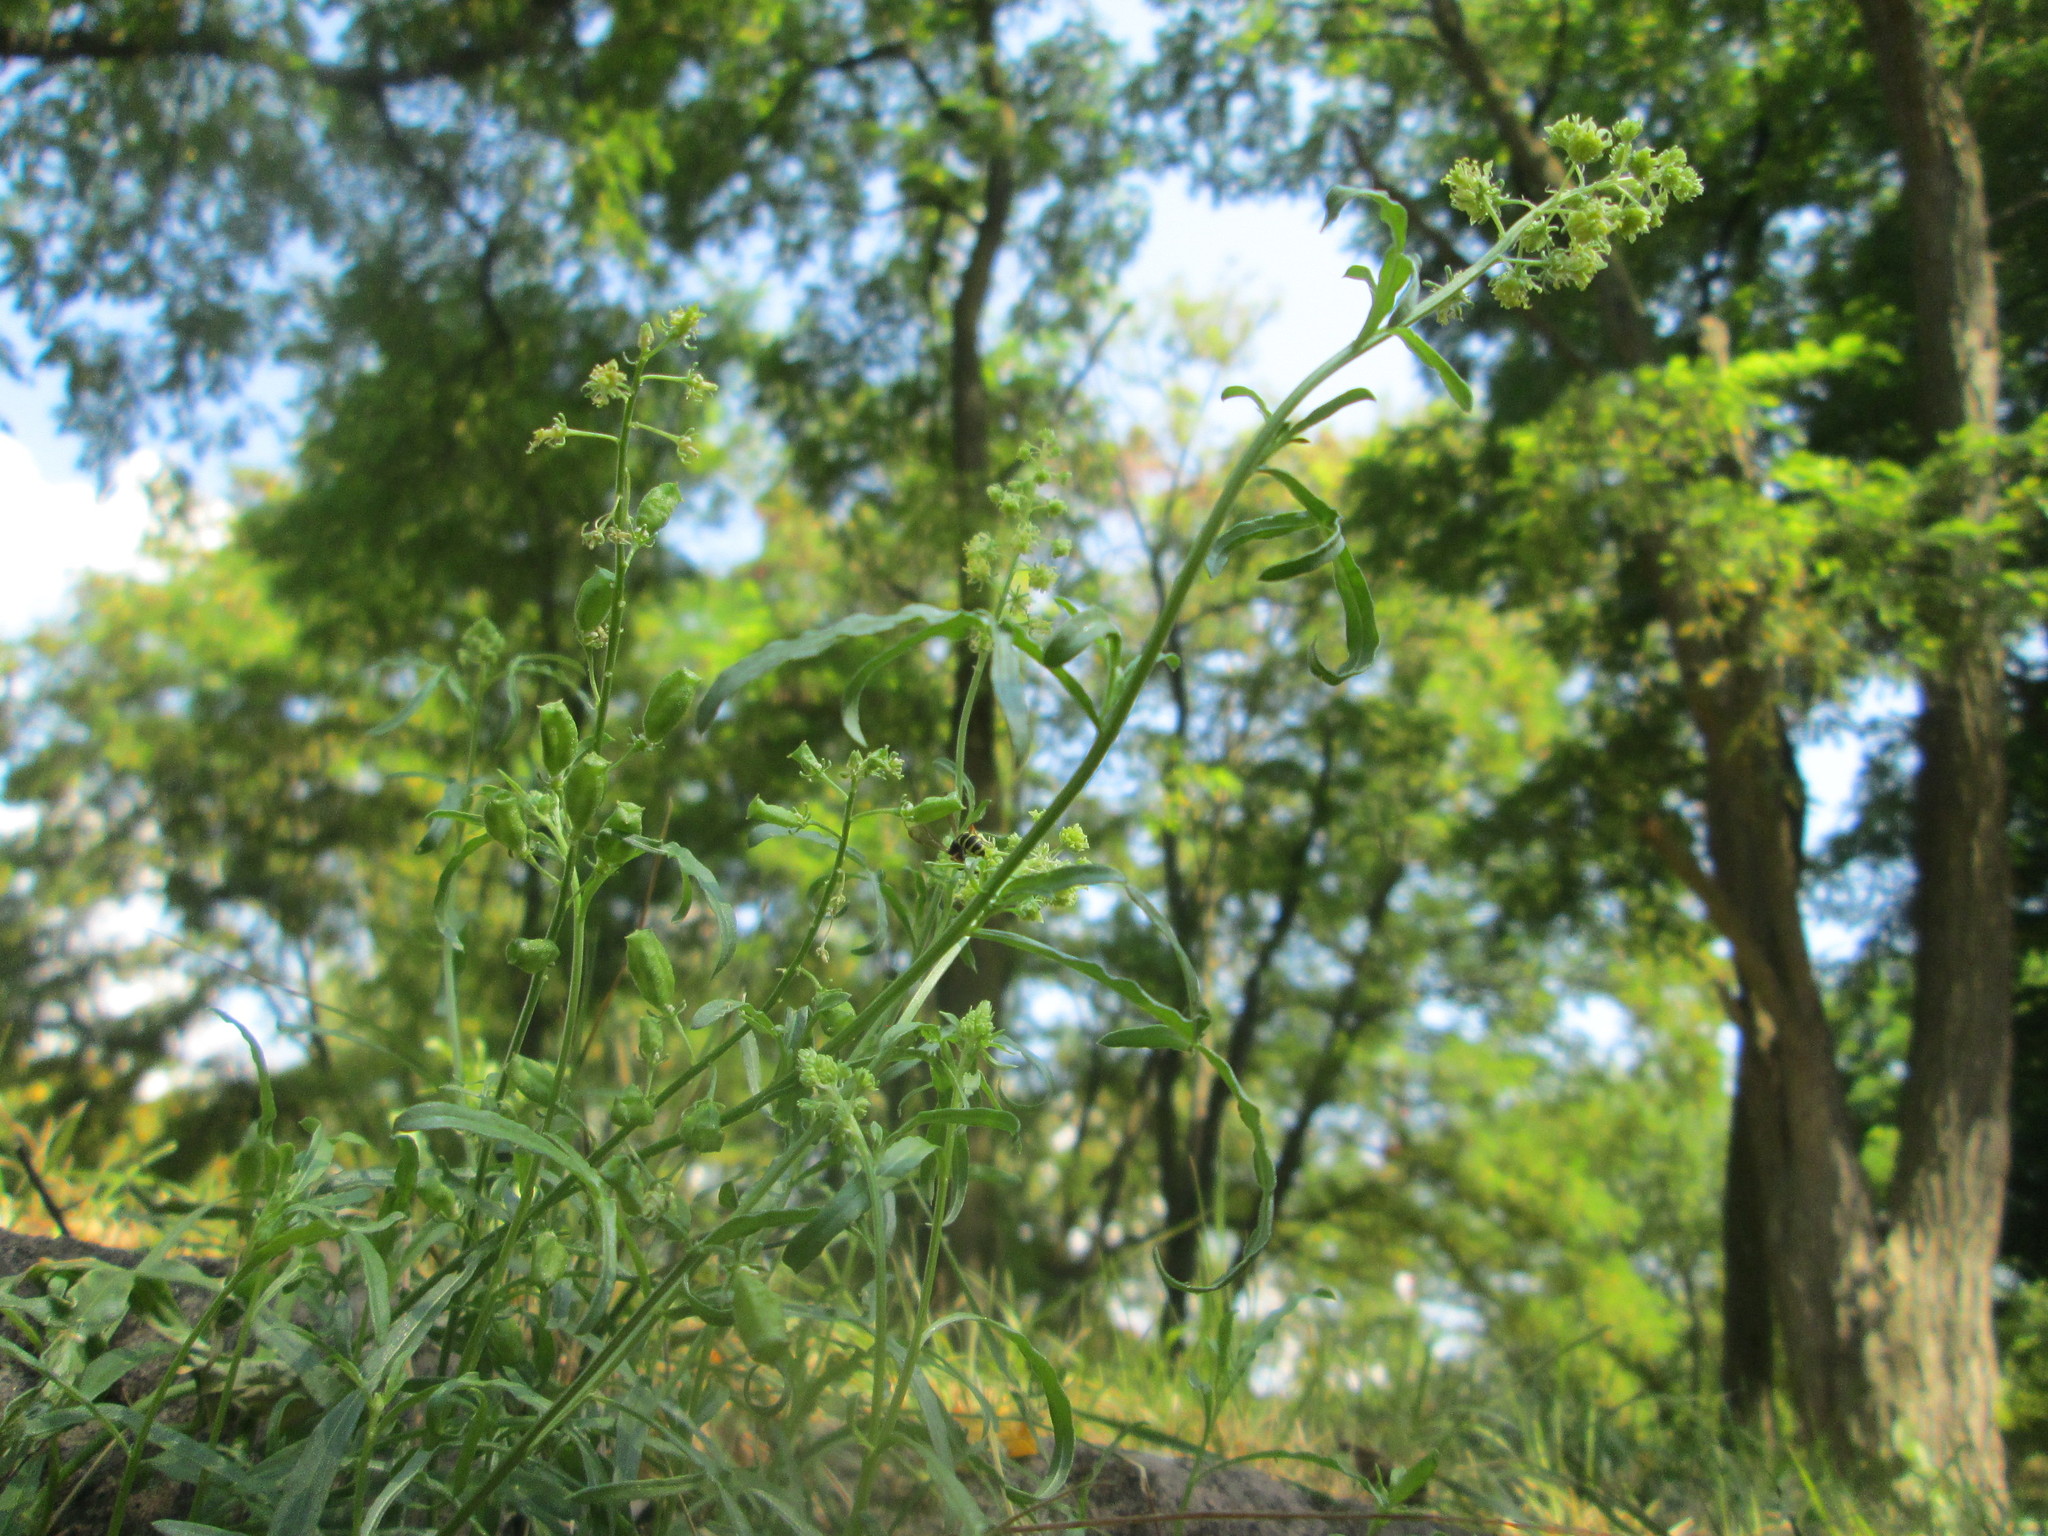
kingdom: Plantae
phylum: Tracheophyta
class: Magnoliopsida
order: Brassicales
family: Resedaceae
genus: Reseda
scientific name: Reseda lutea
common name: Wild mignonette
